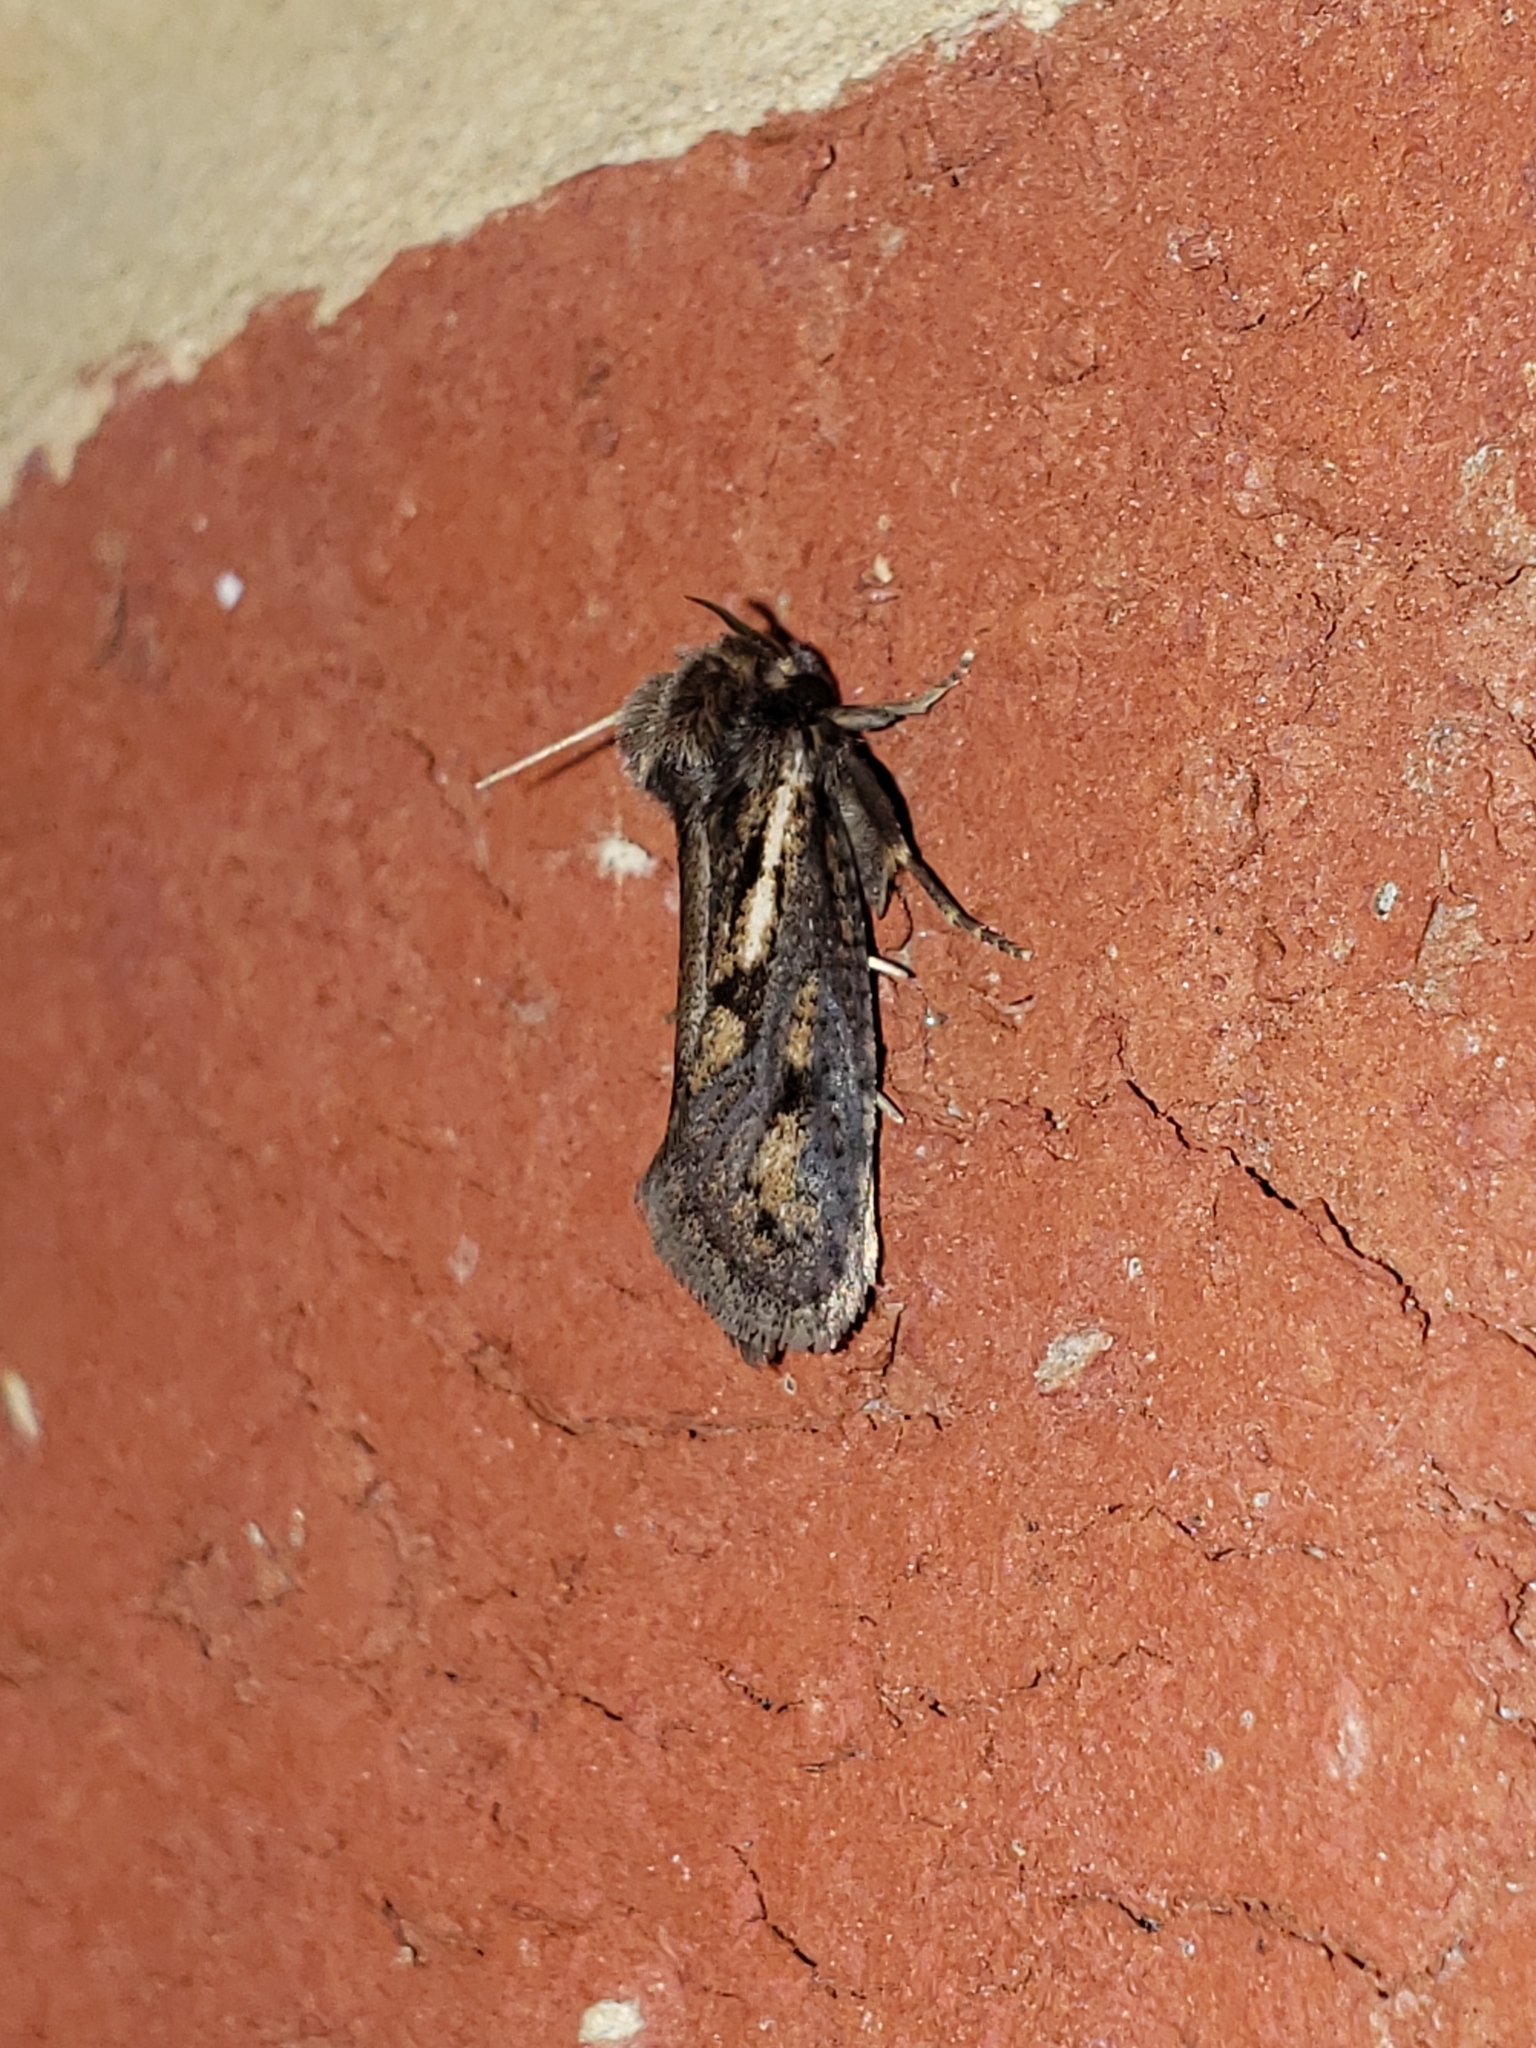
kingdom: Animalia
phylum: Arthropoda
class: Insecta
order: Lepidoptera
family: Tineidae
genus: Acrolophus
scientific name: Acrolophus popeanella
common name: Clemens' grass tubeworm moth
